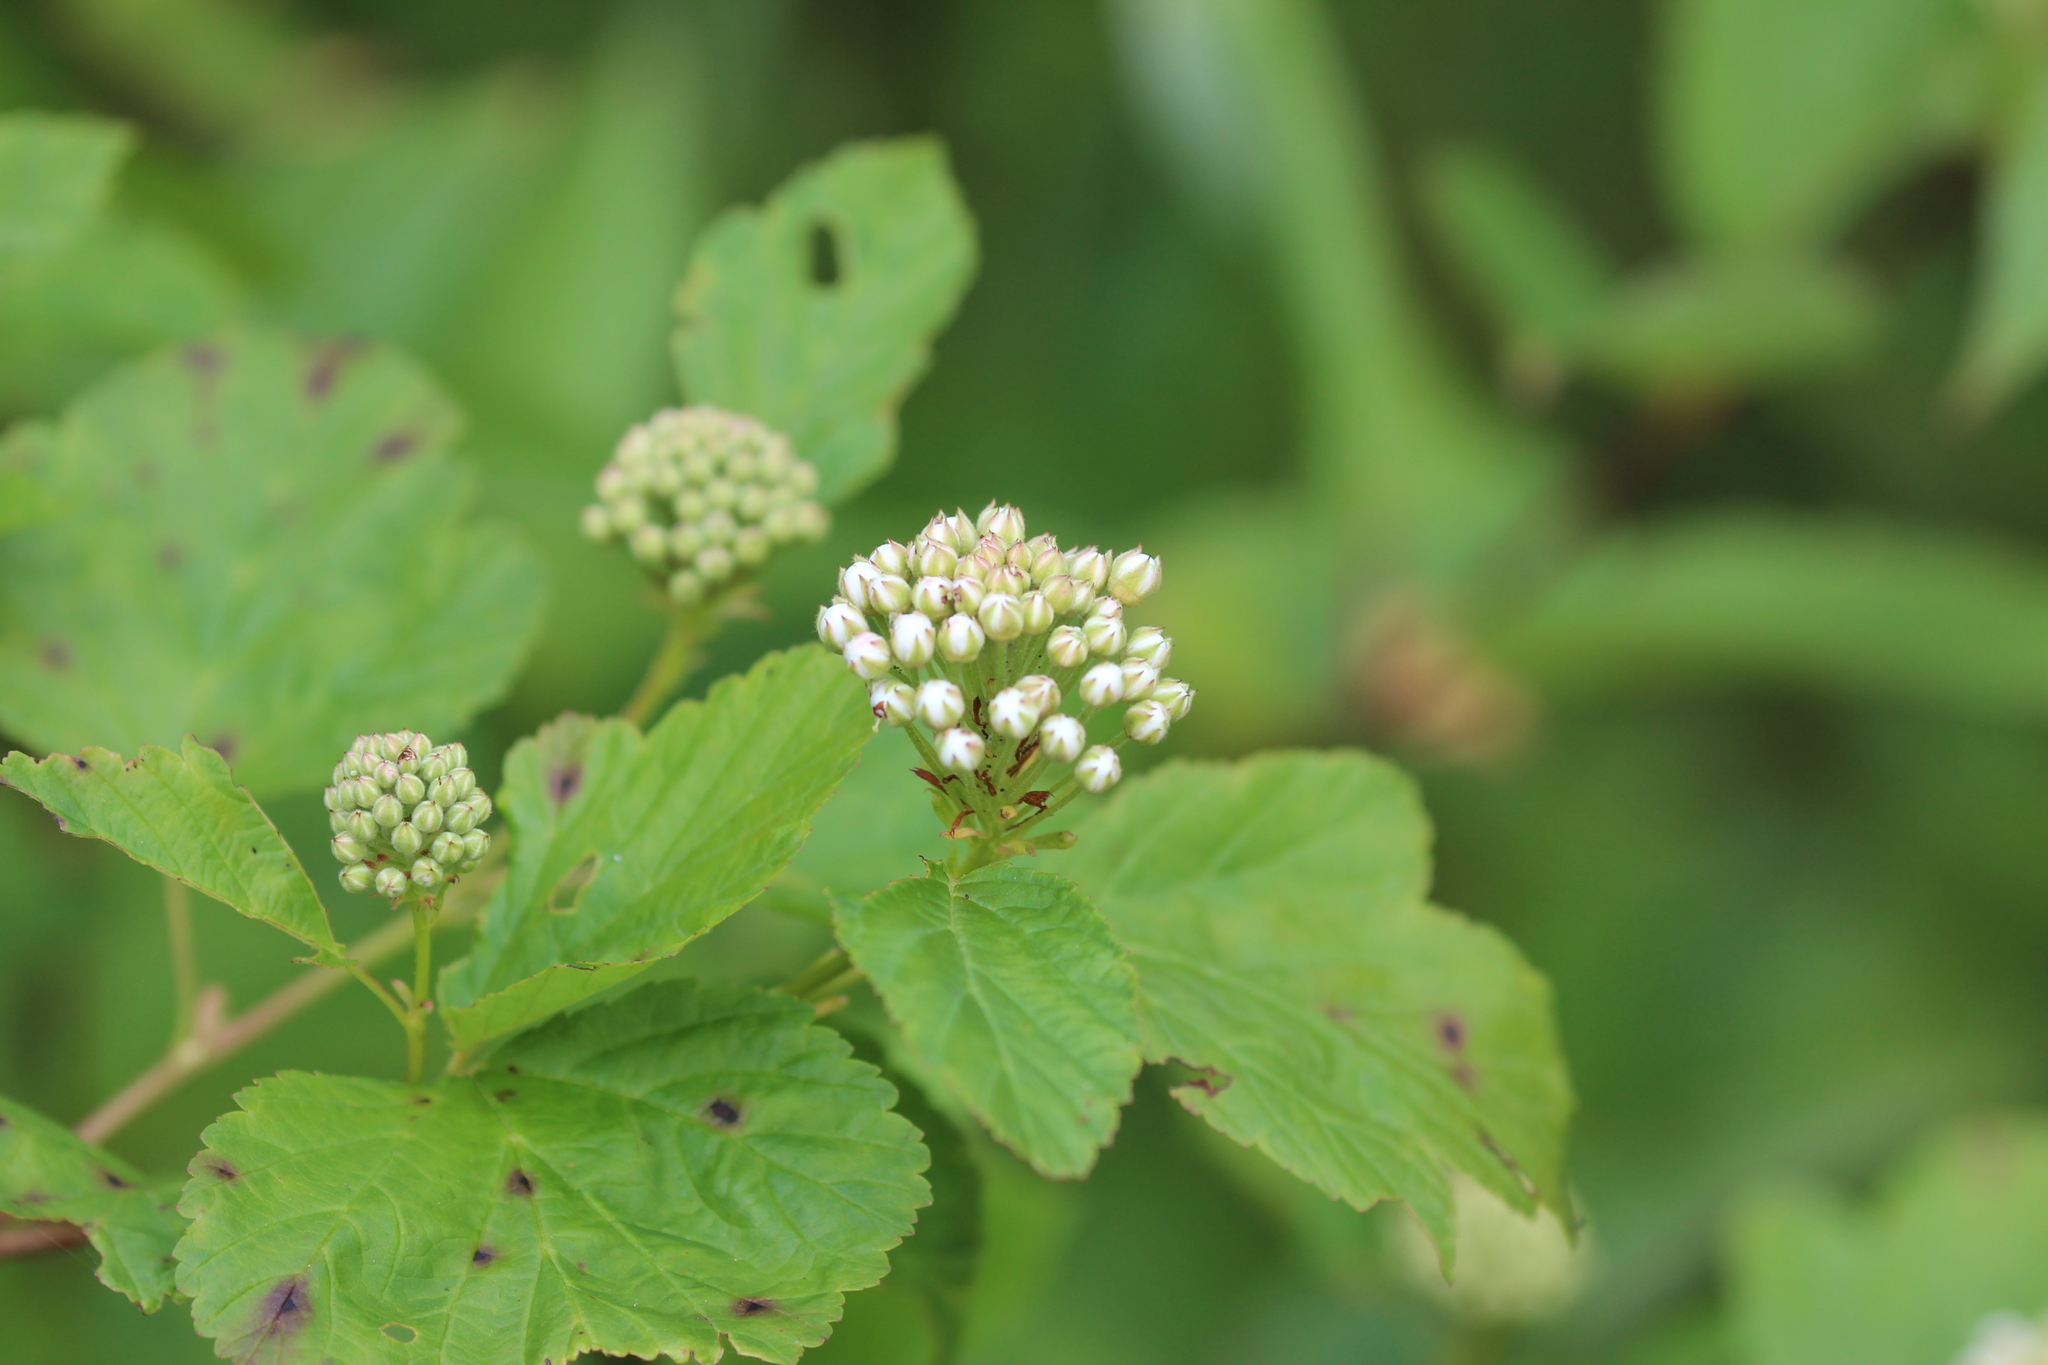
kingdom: Plantae
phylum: Tracheophyta
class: Magnoliopsida
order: Rosales
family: Rosaceae
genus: Physocarpus
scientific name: Physocarpus opulifolius
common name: Ninebark
